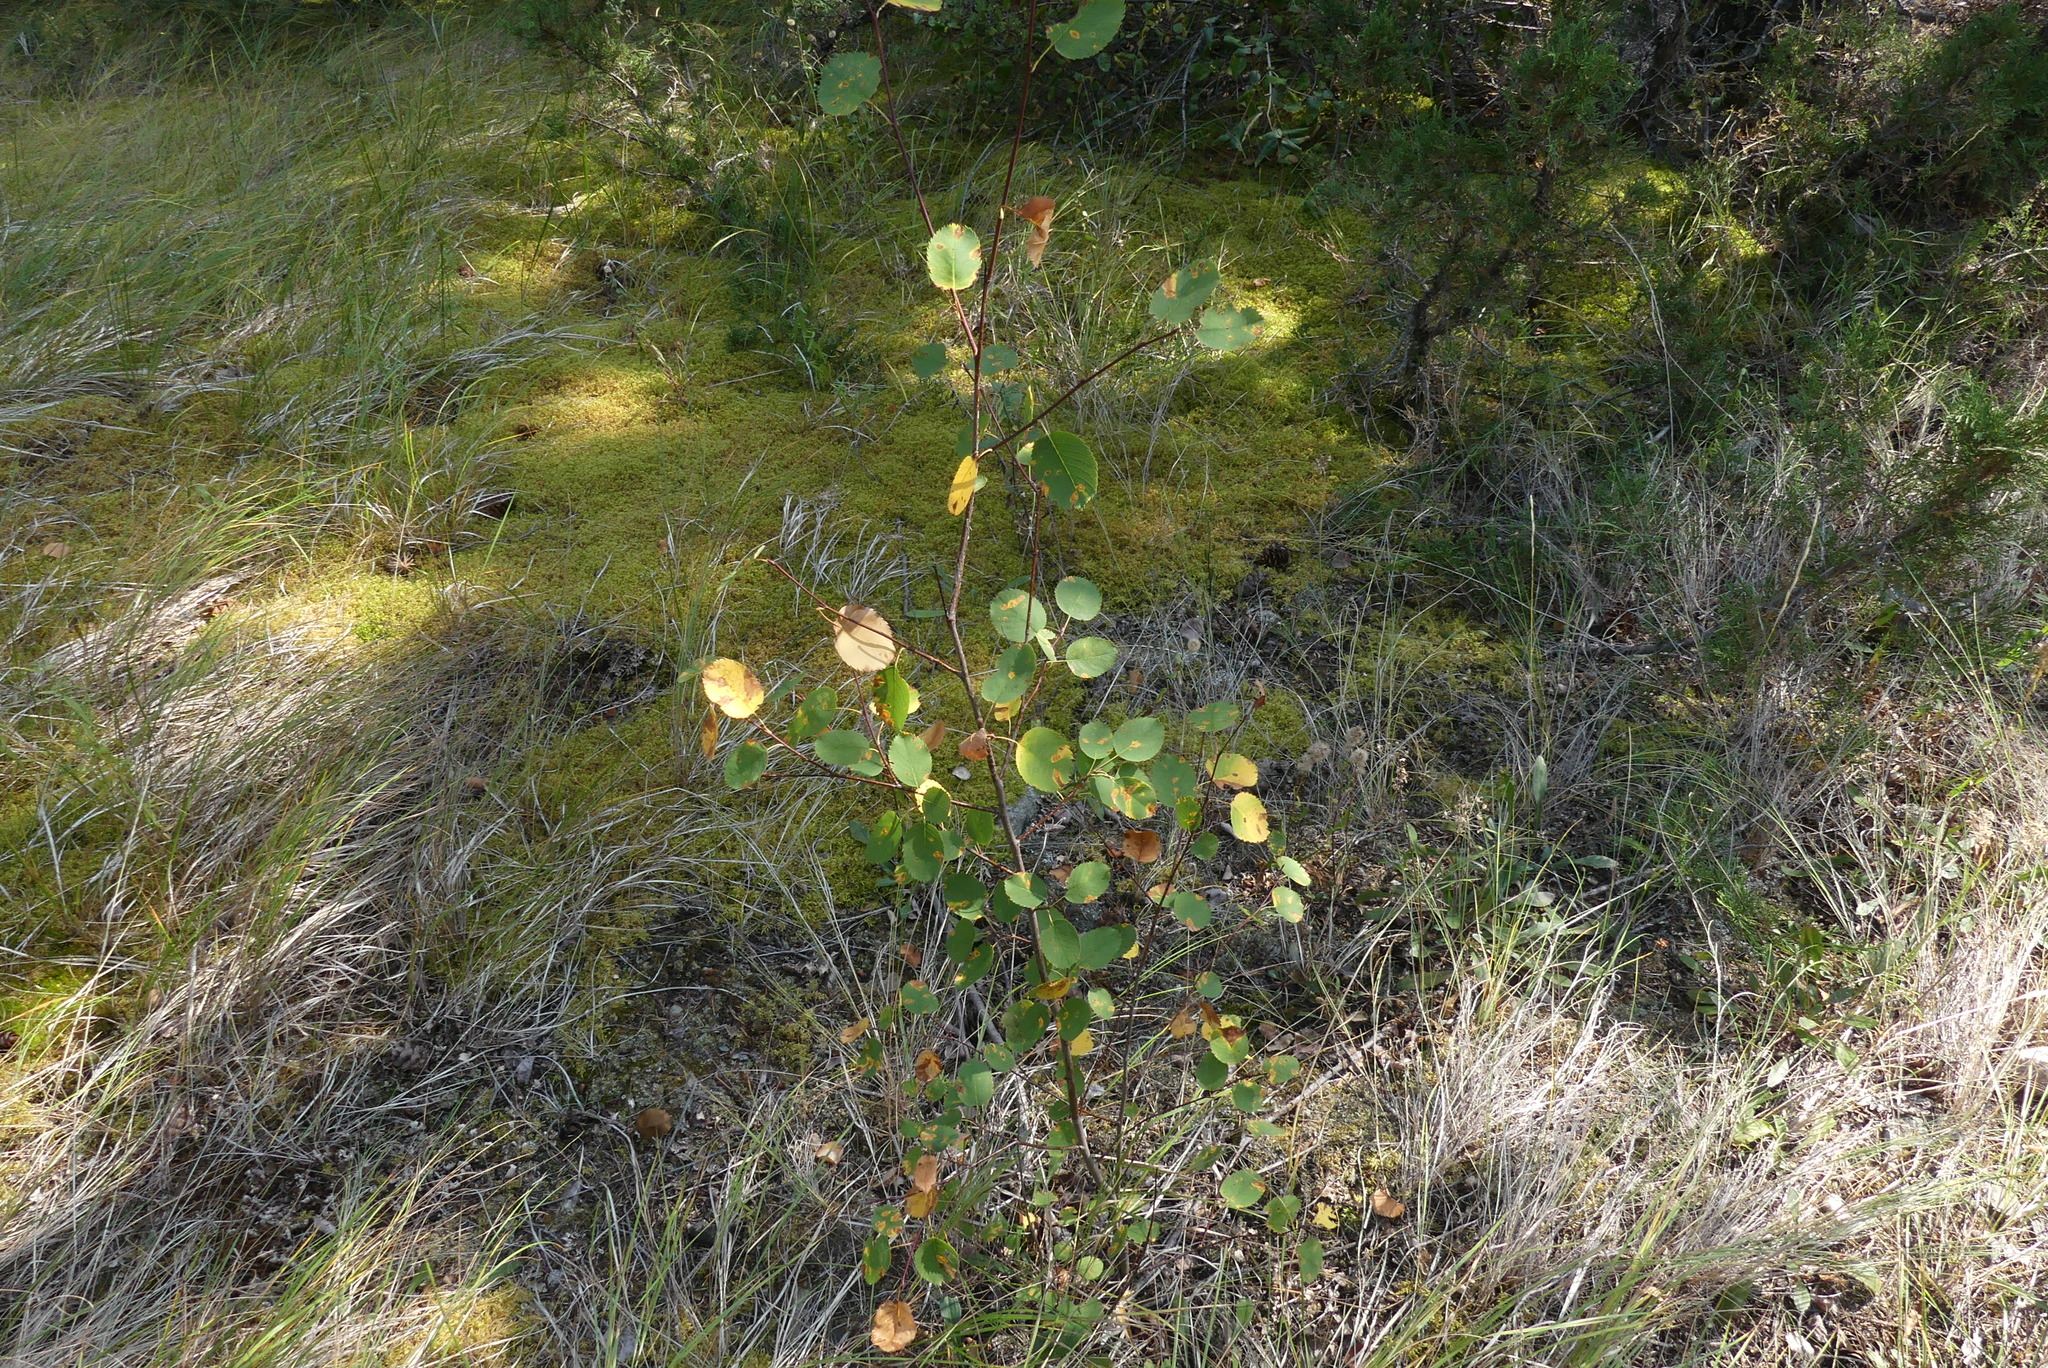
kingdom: Plantae
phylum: Tracheophyta
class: Magnoliopsida
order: Rosales
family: Rosaceae
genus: Amelanchier
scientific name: Amelanchier alnifolia
